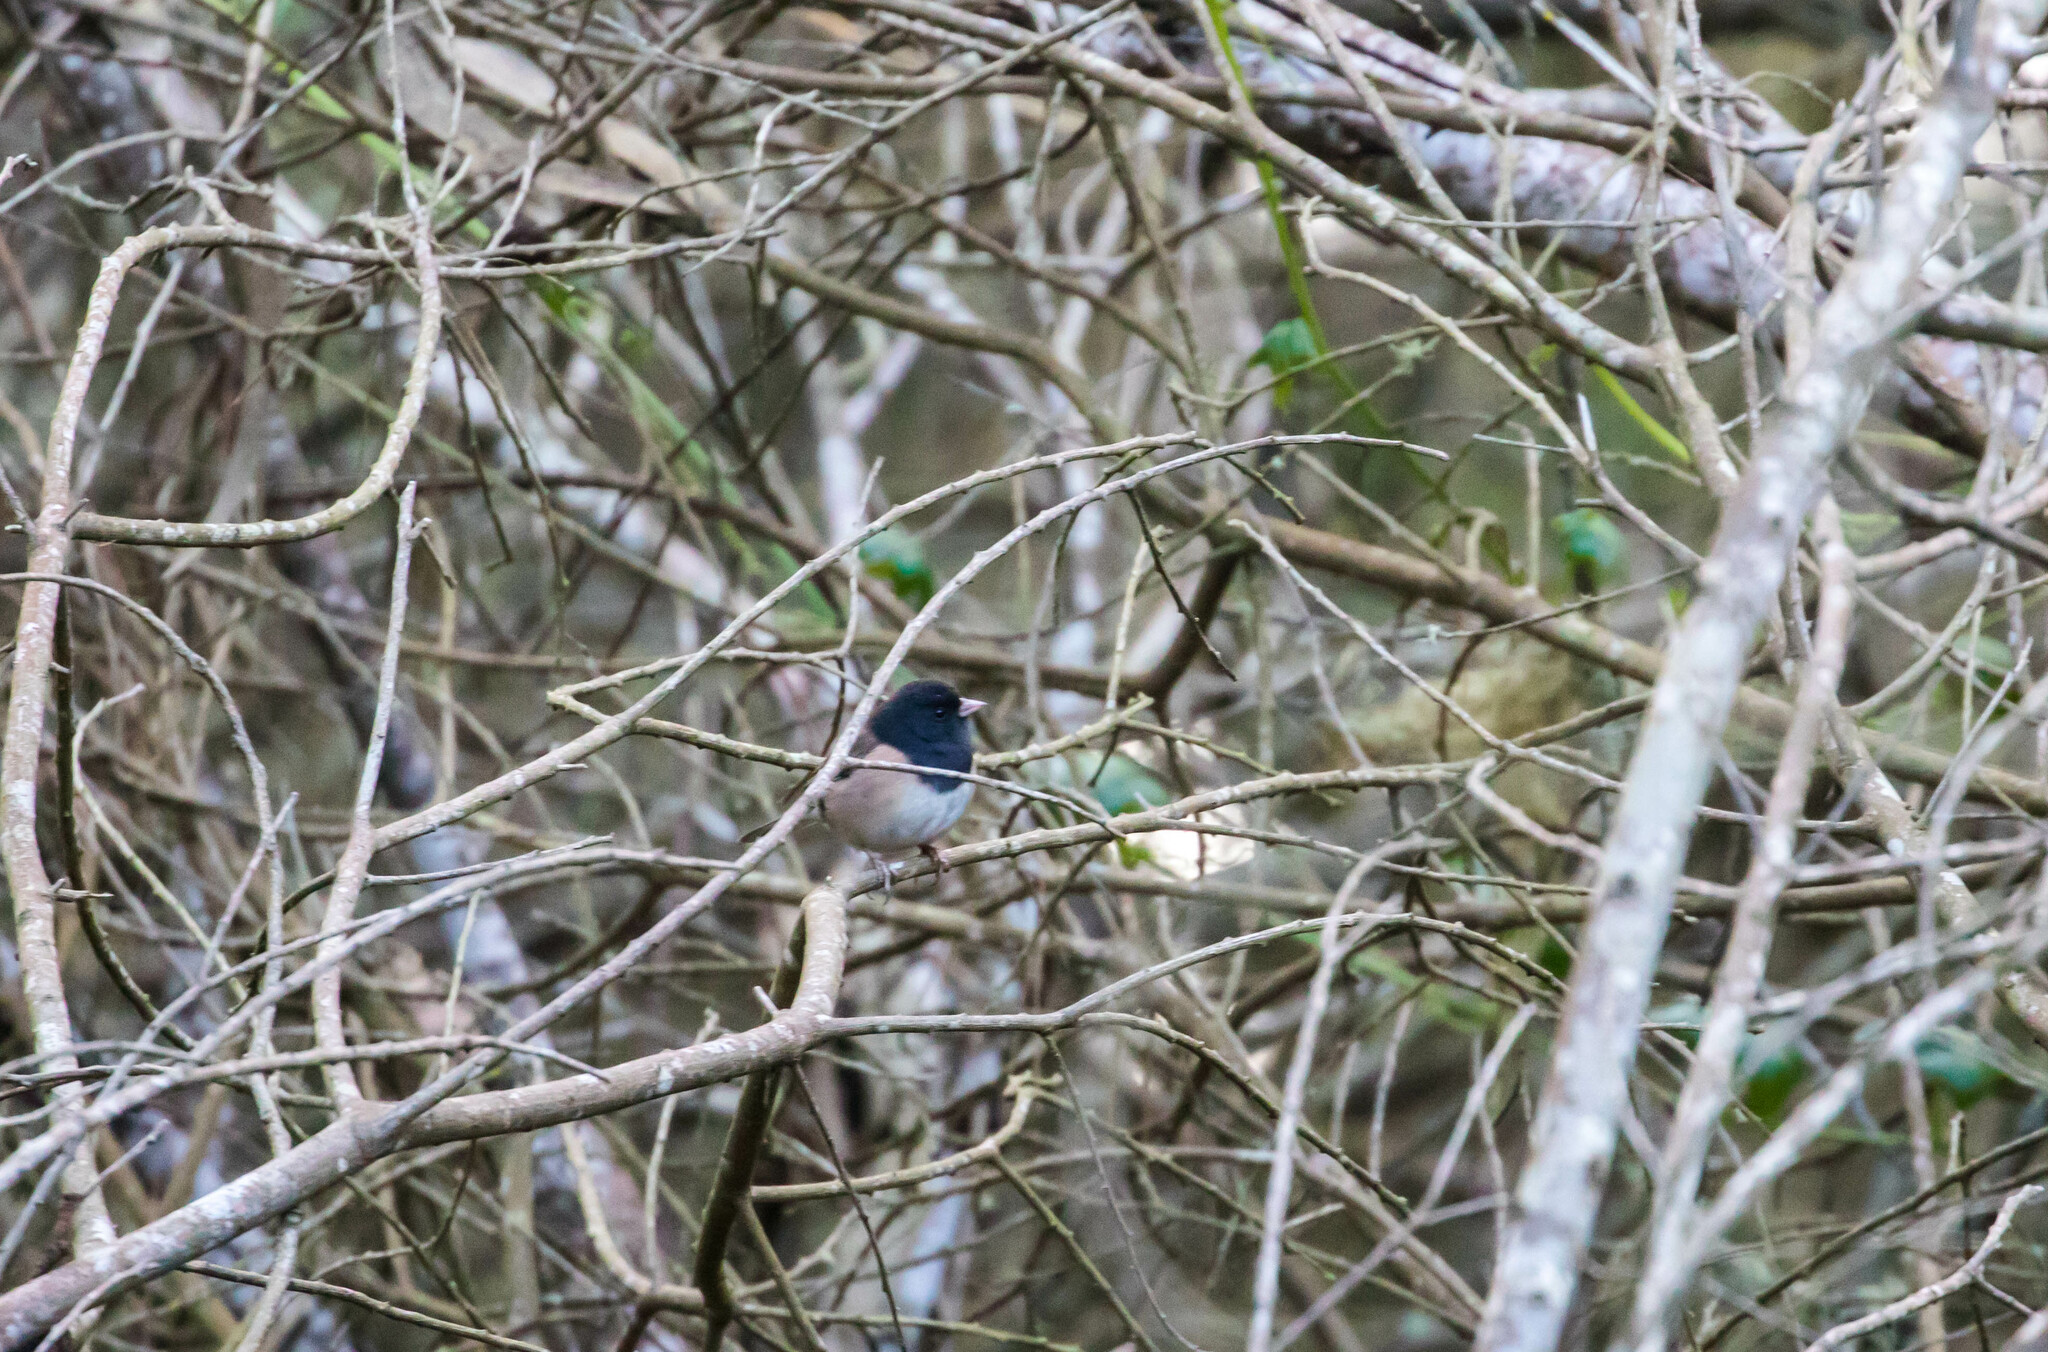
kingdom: Animalia
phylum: Chordata
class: Aves
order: Passeriformes
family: Passerellidae
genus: Junco
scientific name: Junco hyemalis
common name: Dark-eyed junco
